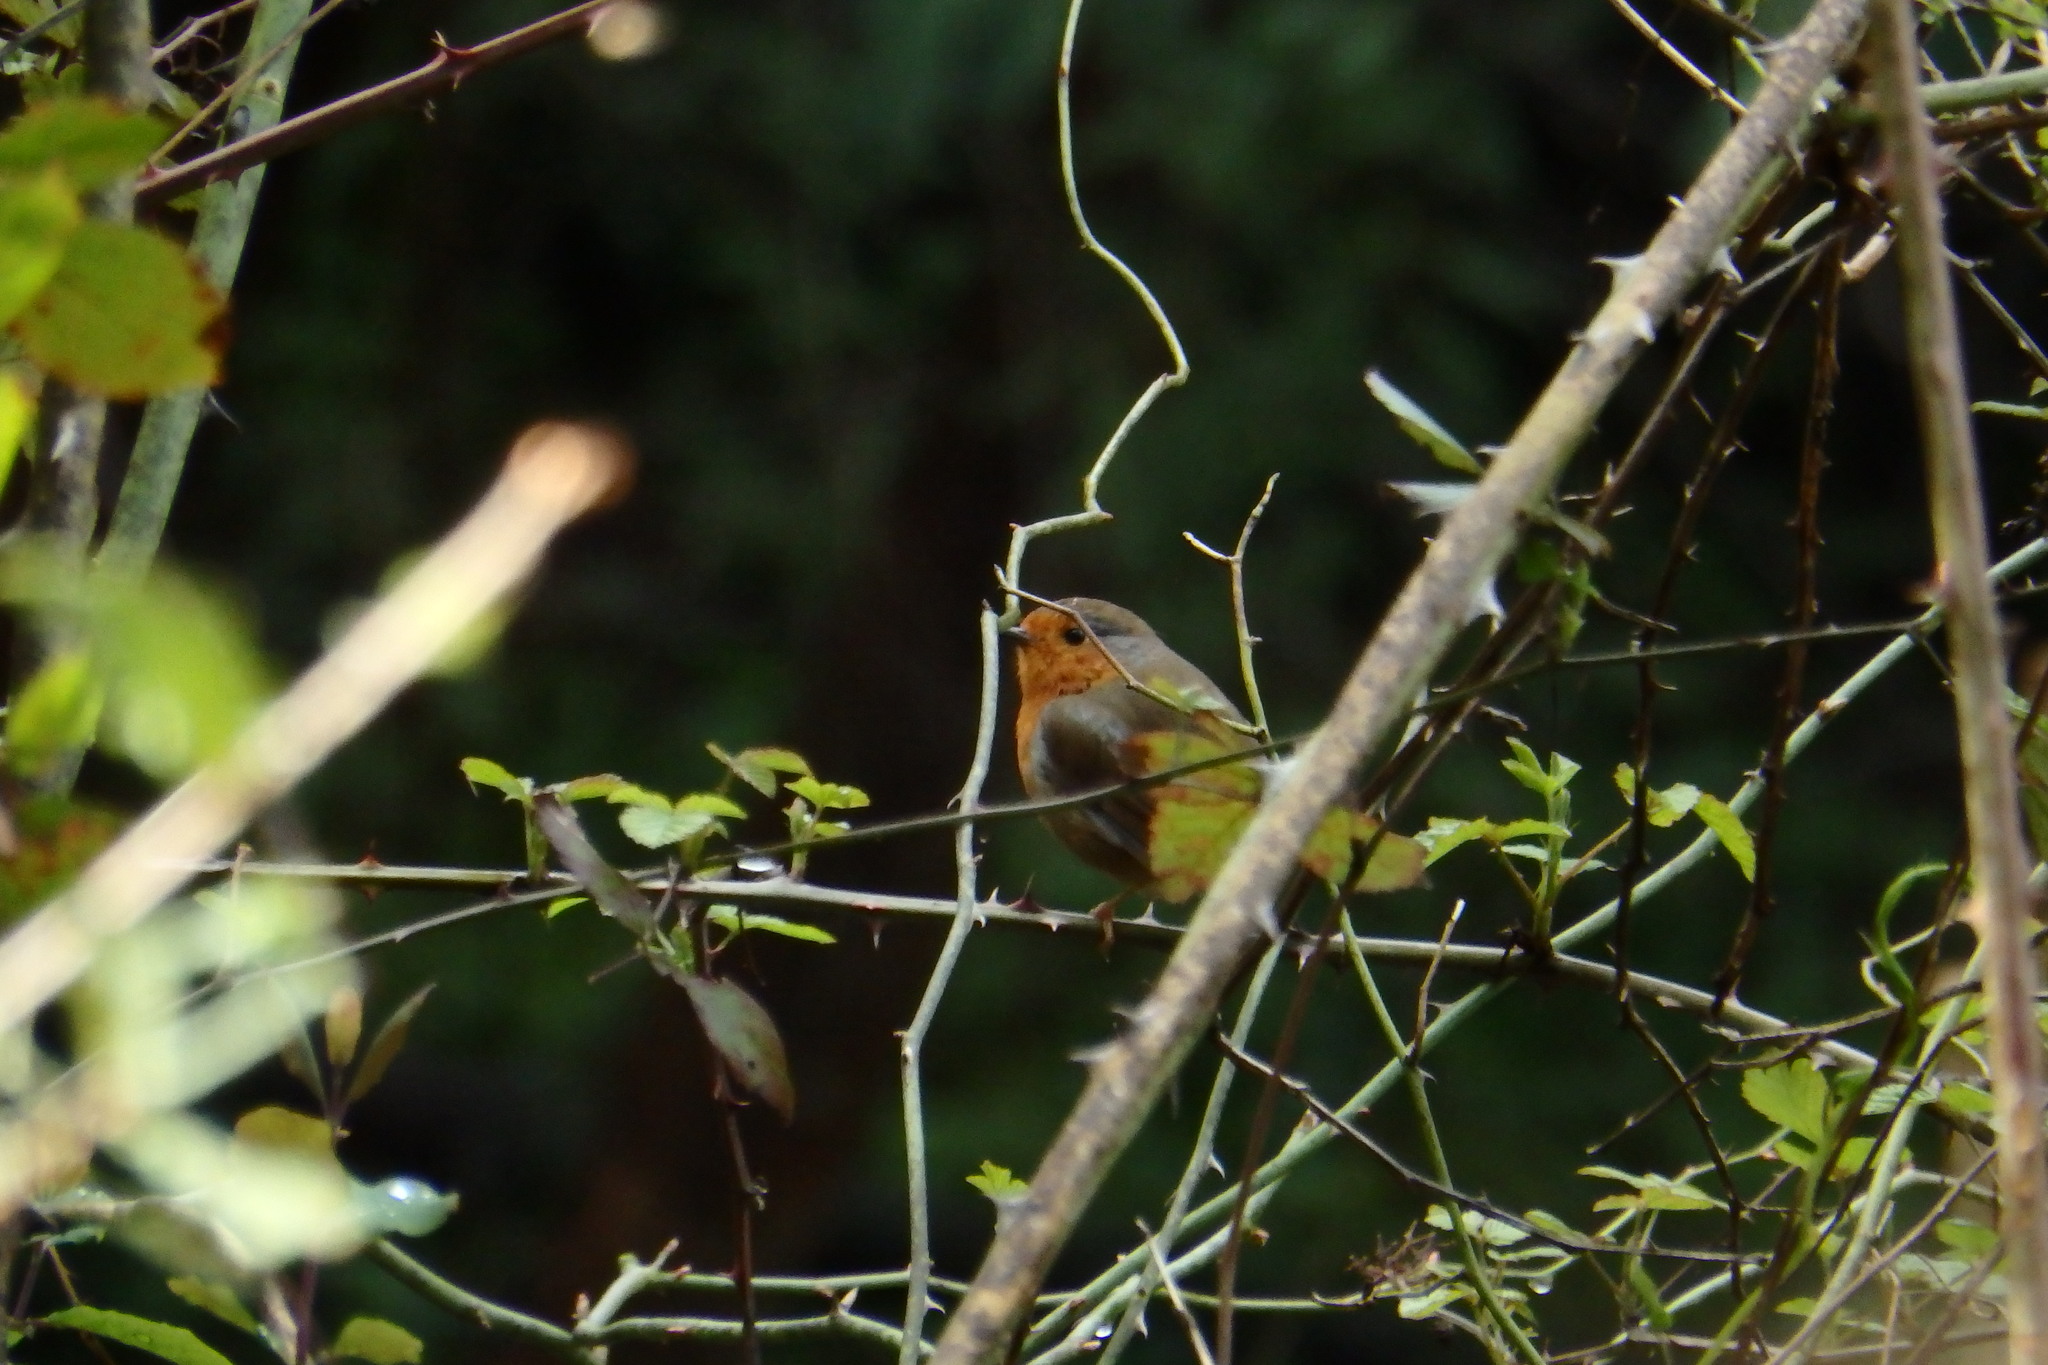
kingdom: Animalia
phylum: Chordata
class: Aves
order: Passeriformes
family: Muscicapidae
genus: Erithacus
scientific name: Erithacus rubecula
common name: European robin
